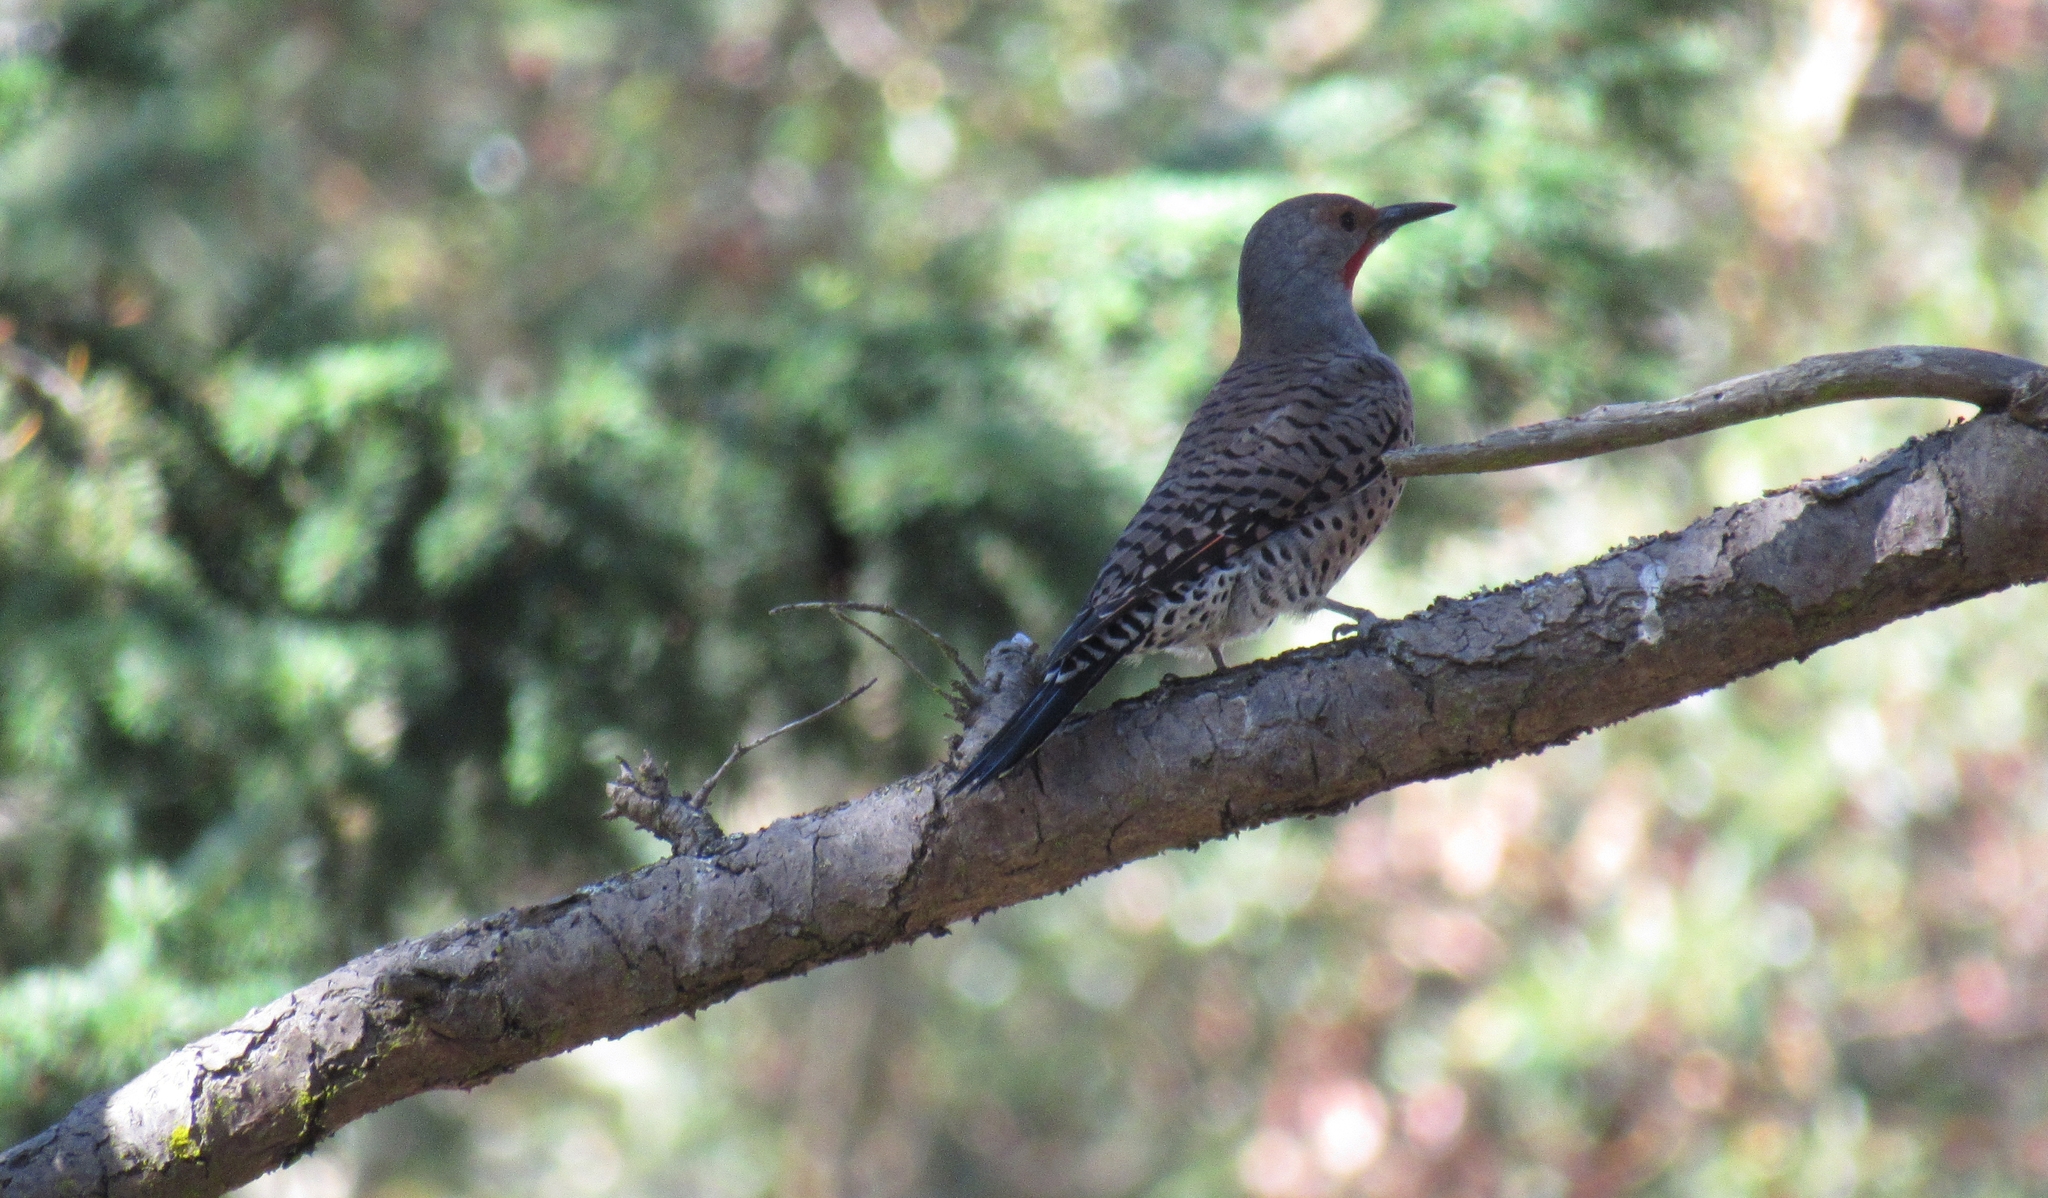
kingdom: Animalia
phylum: Chordata
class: Aves
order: Piciformes
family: Picidae
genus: Colaptes
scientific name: Colaptes auratus
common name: Northern flicker
